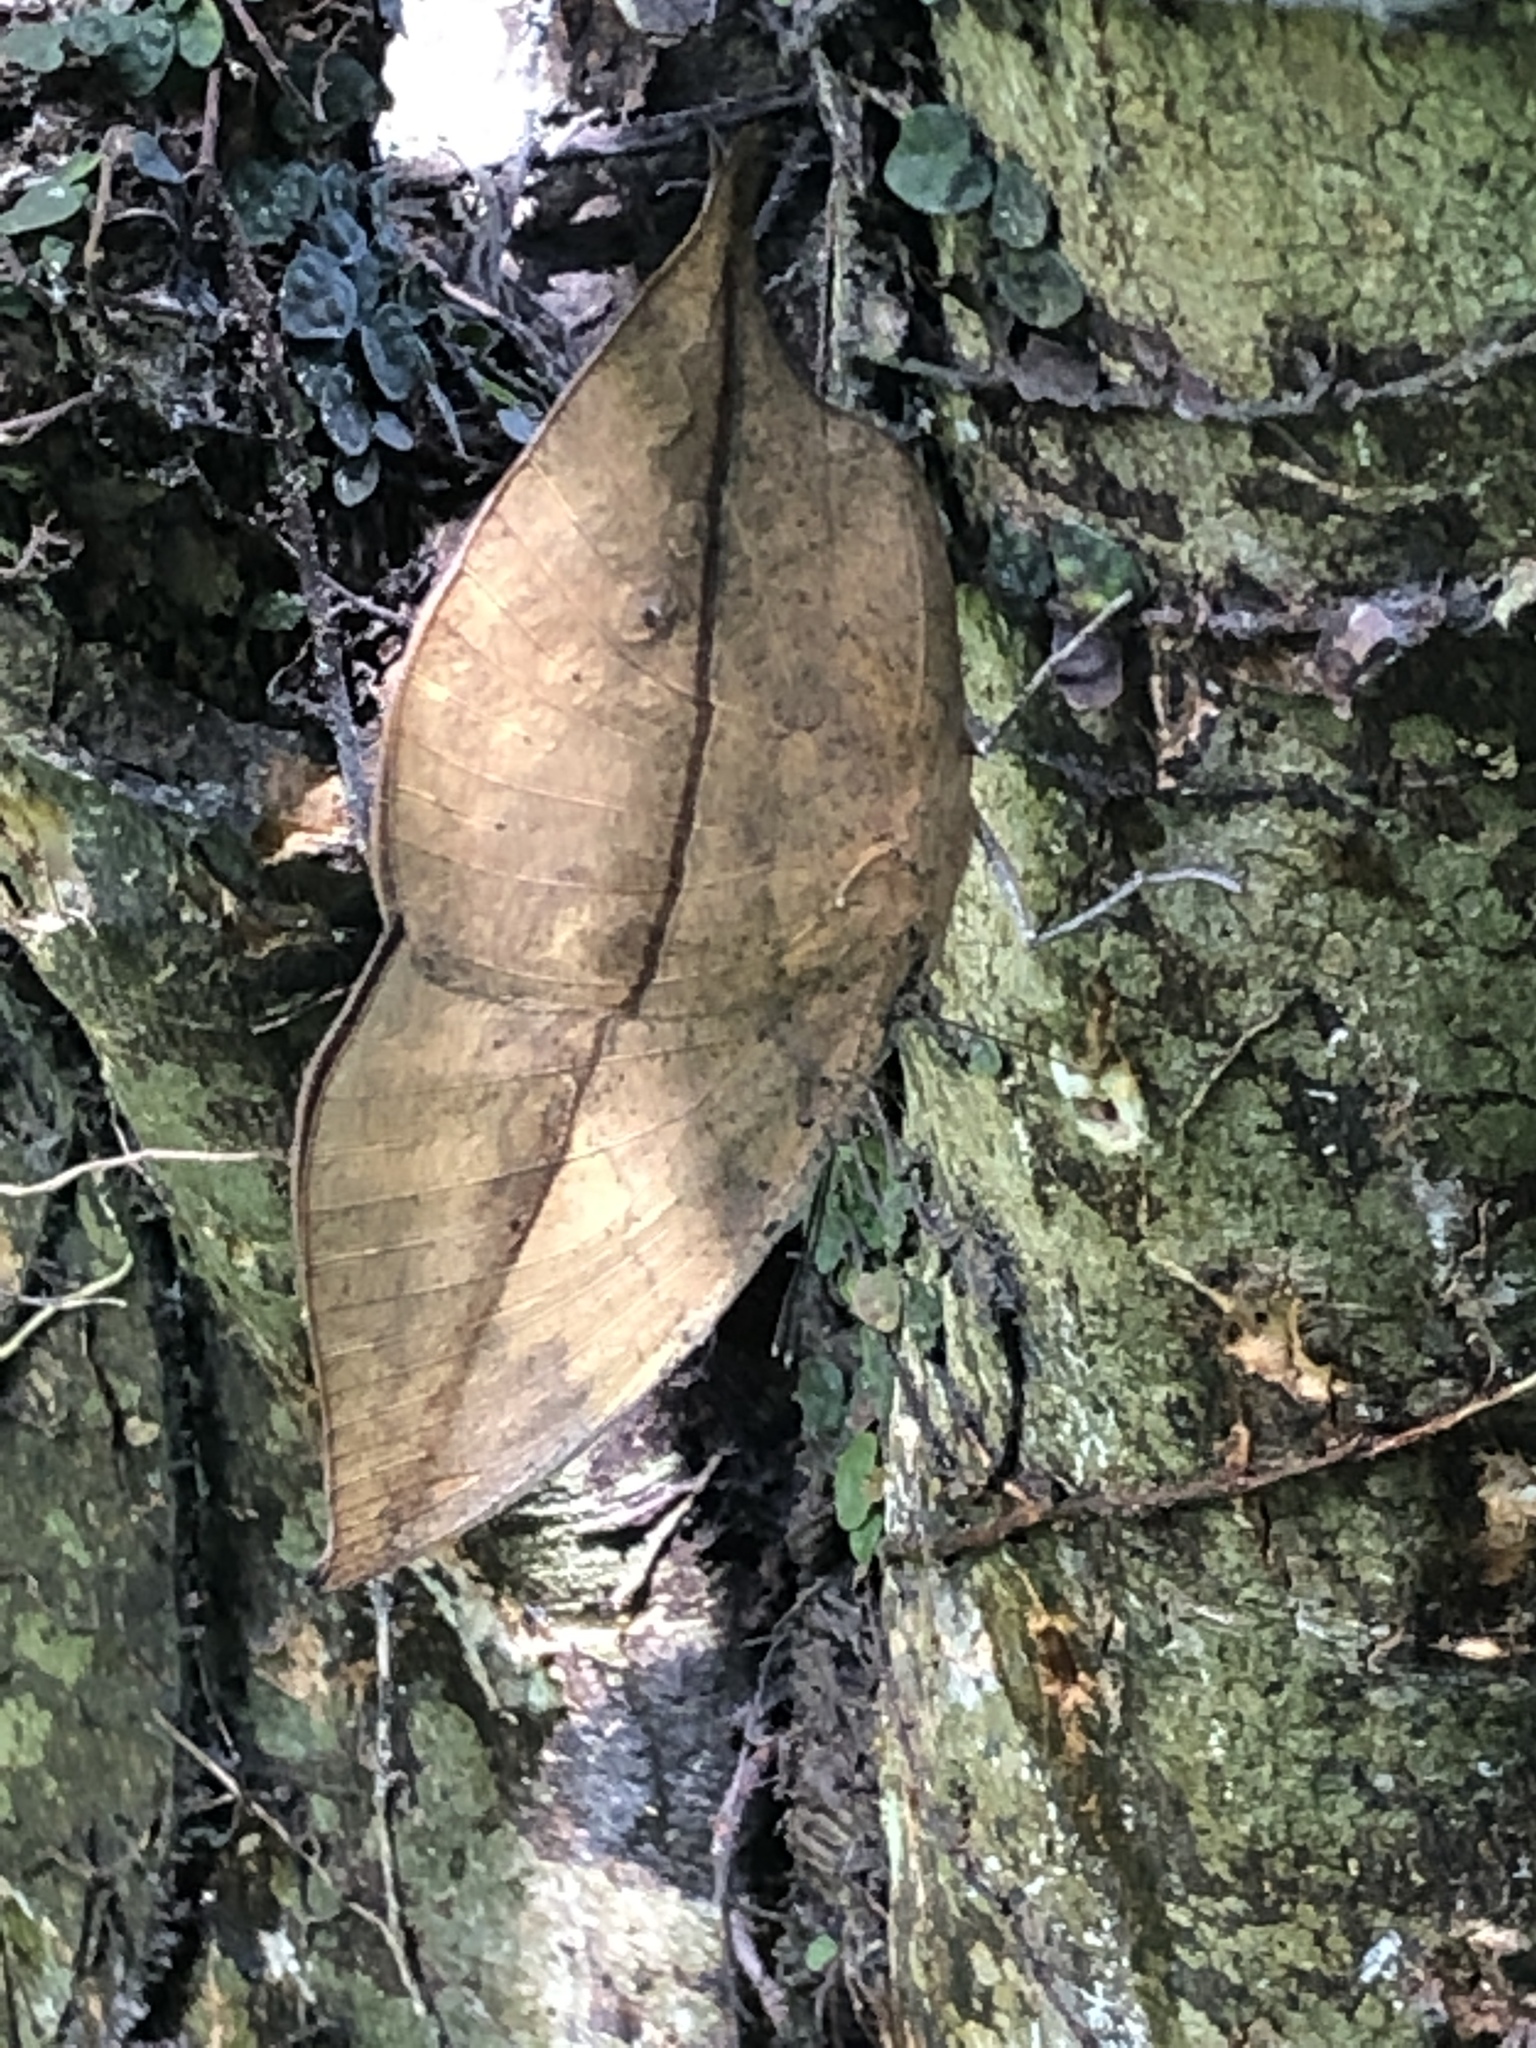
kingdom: Animalia
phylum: Arthropoda
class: Insecta
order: Lepidoptera
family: Nymphalidae
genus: Kallima
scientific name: Kallima inachus
